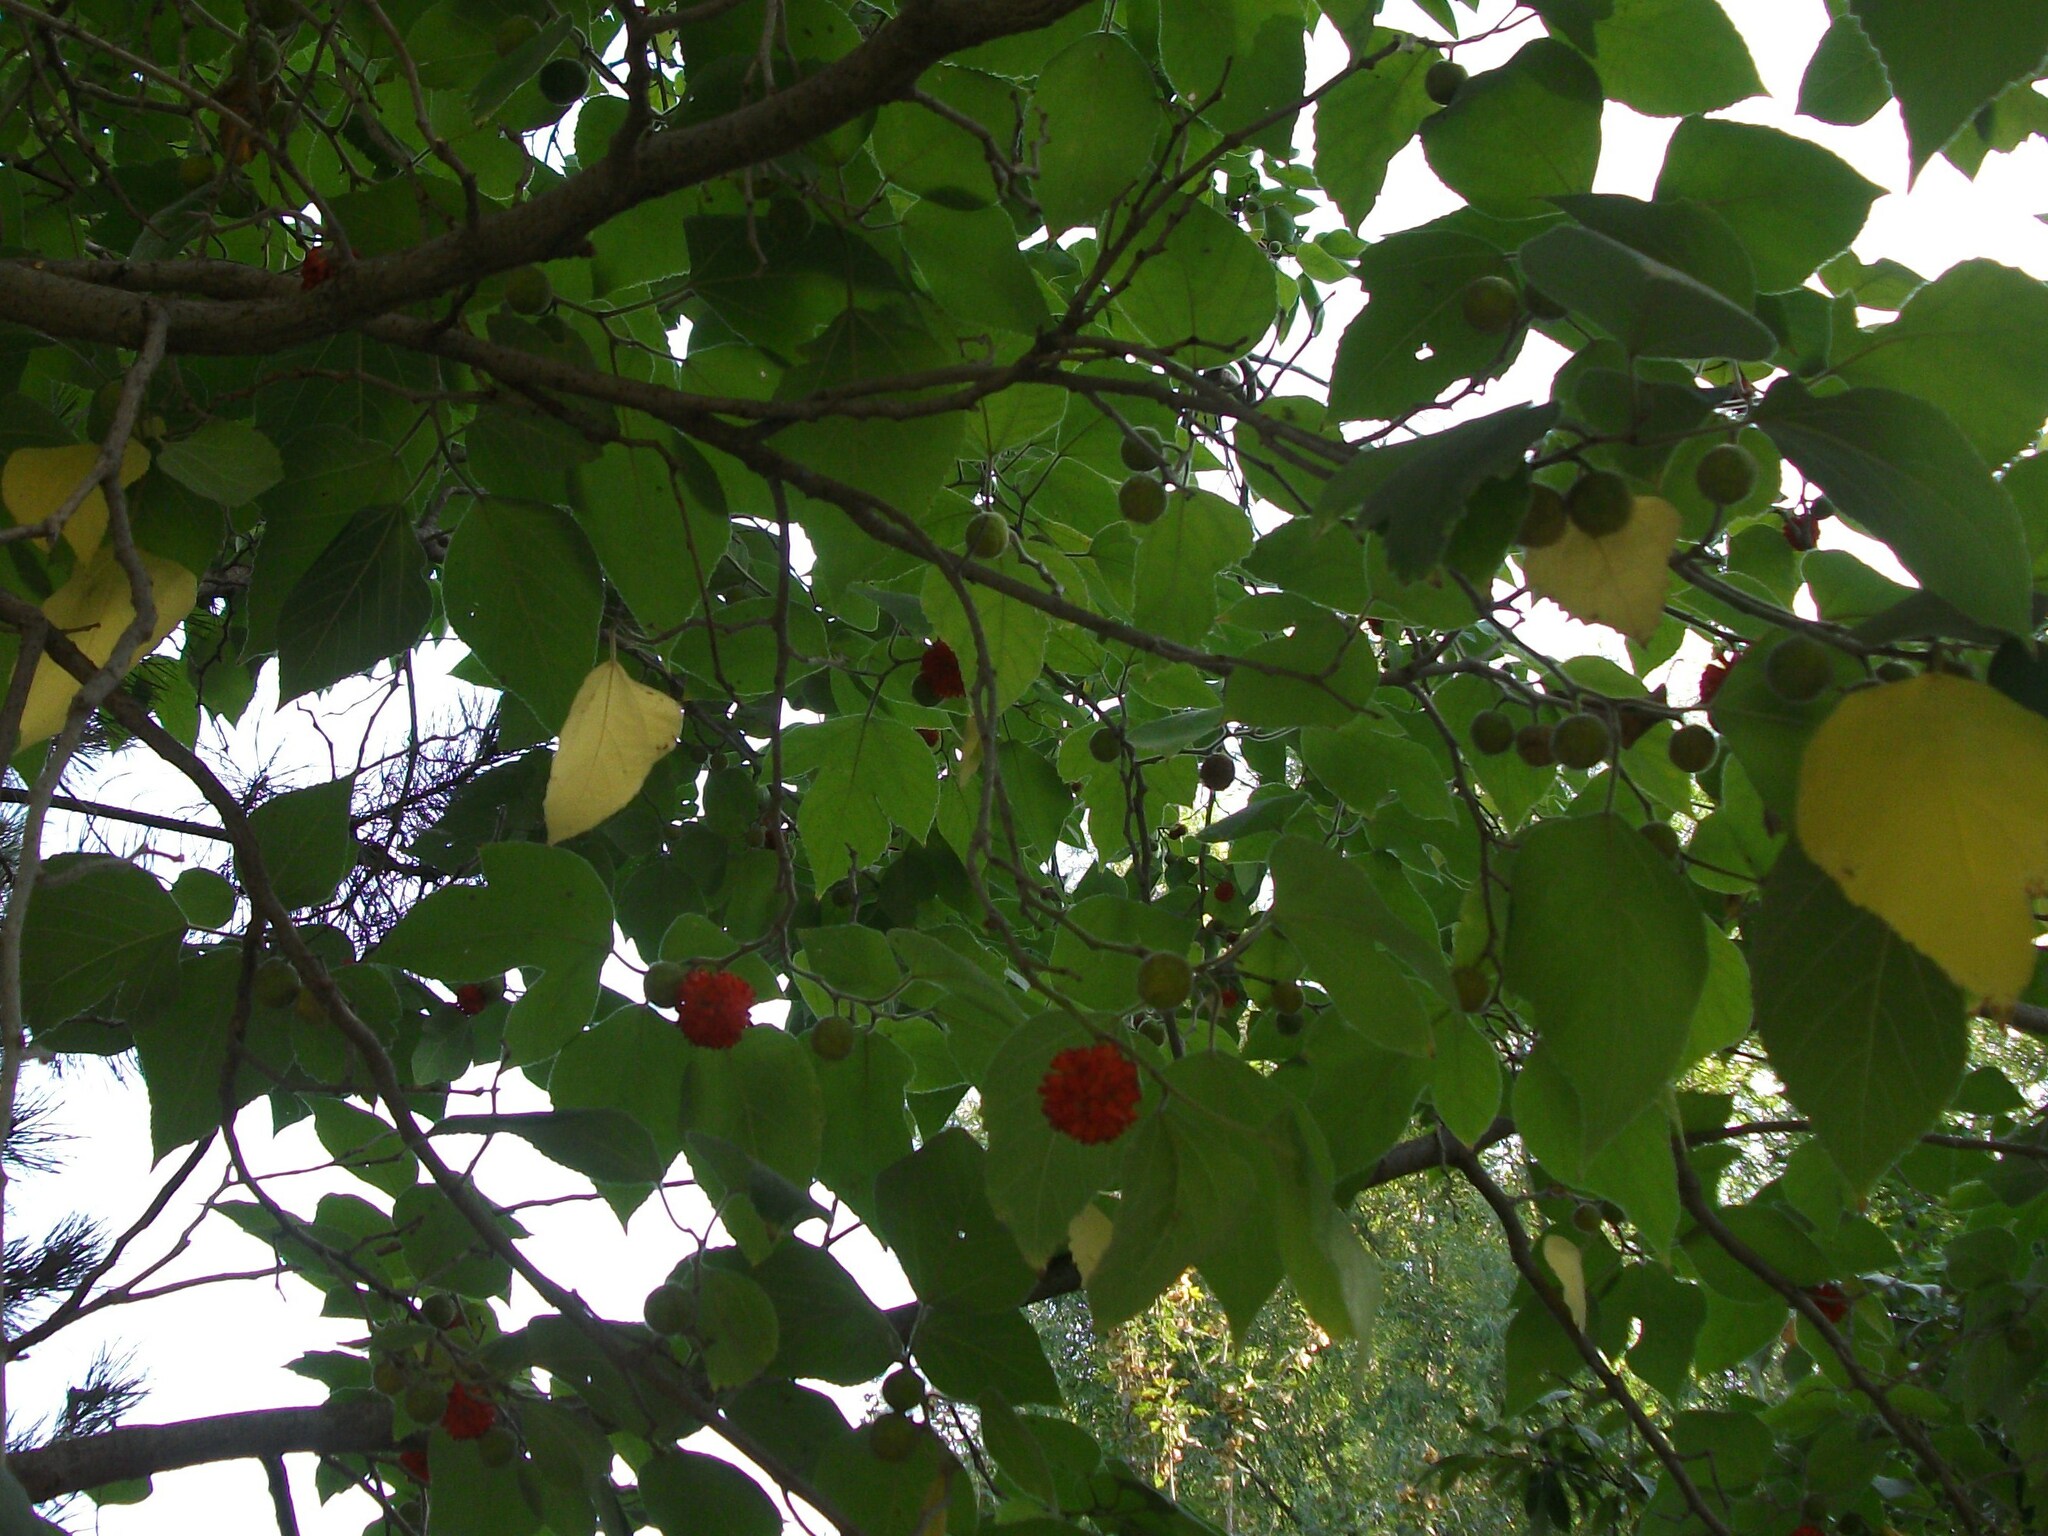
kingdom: Plantae
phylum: Tracheophyta
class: Magnoliopsida
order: Rosales
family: Moraceae
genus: Broussonetia
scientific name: Broussonetia papyrifera
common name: Paper mulberry
